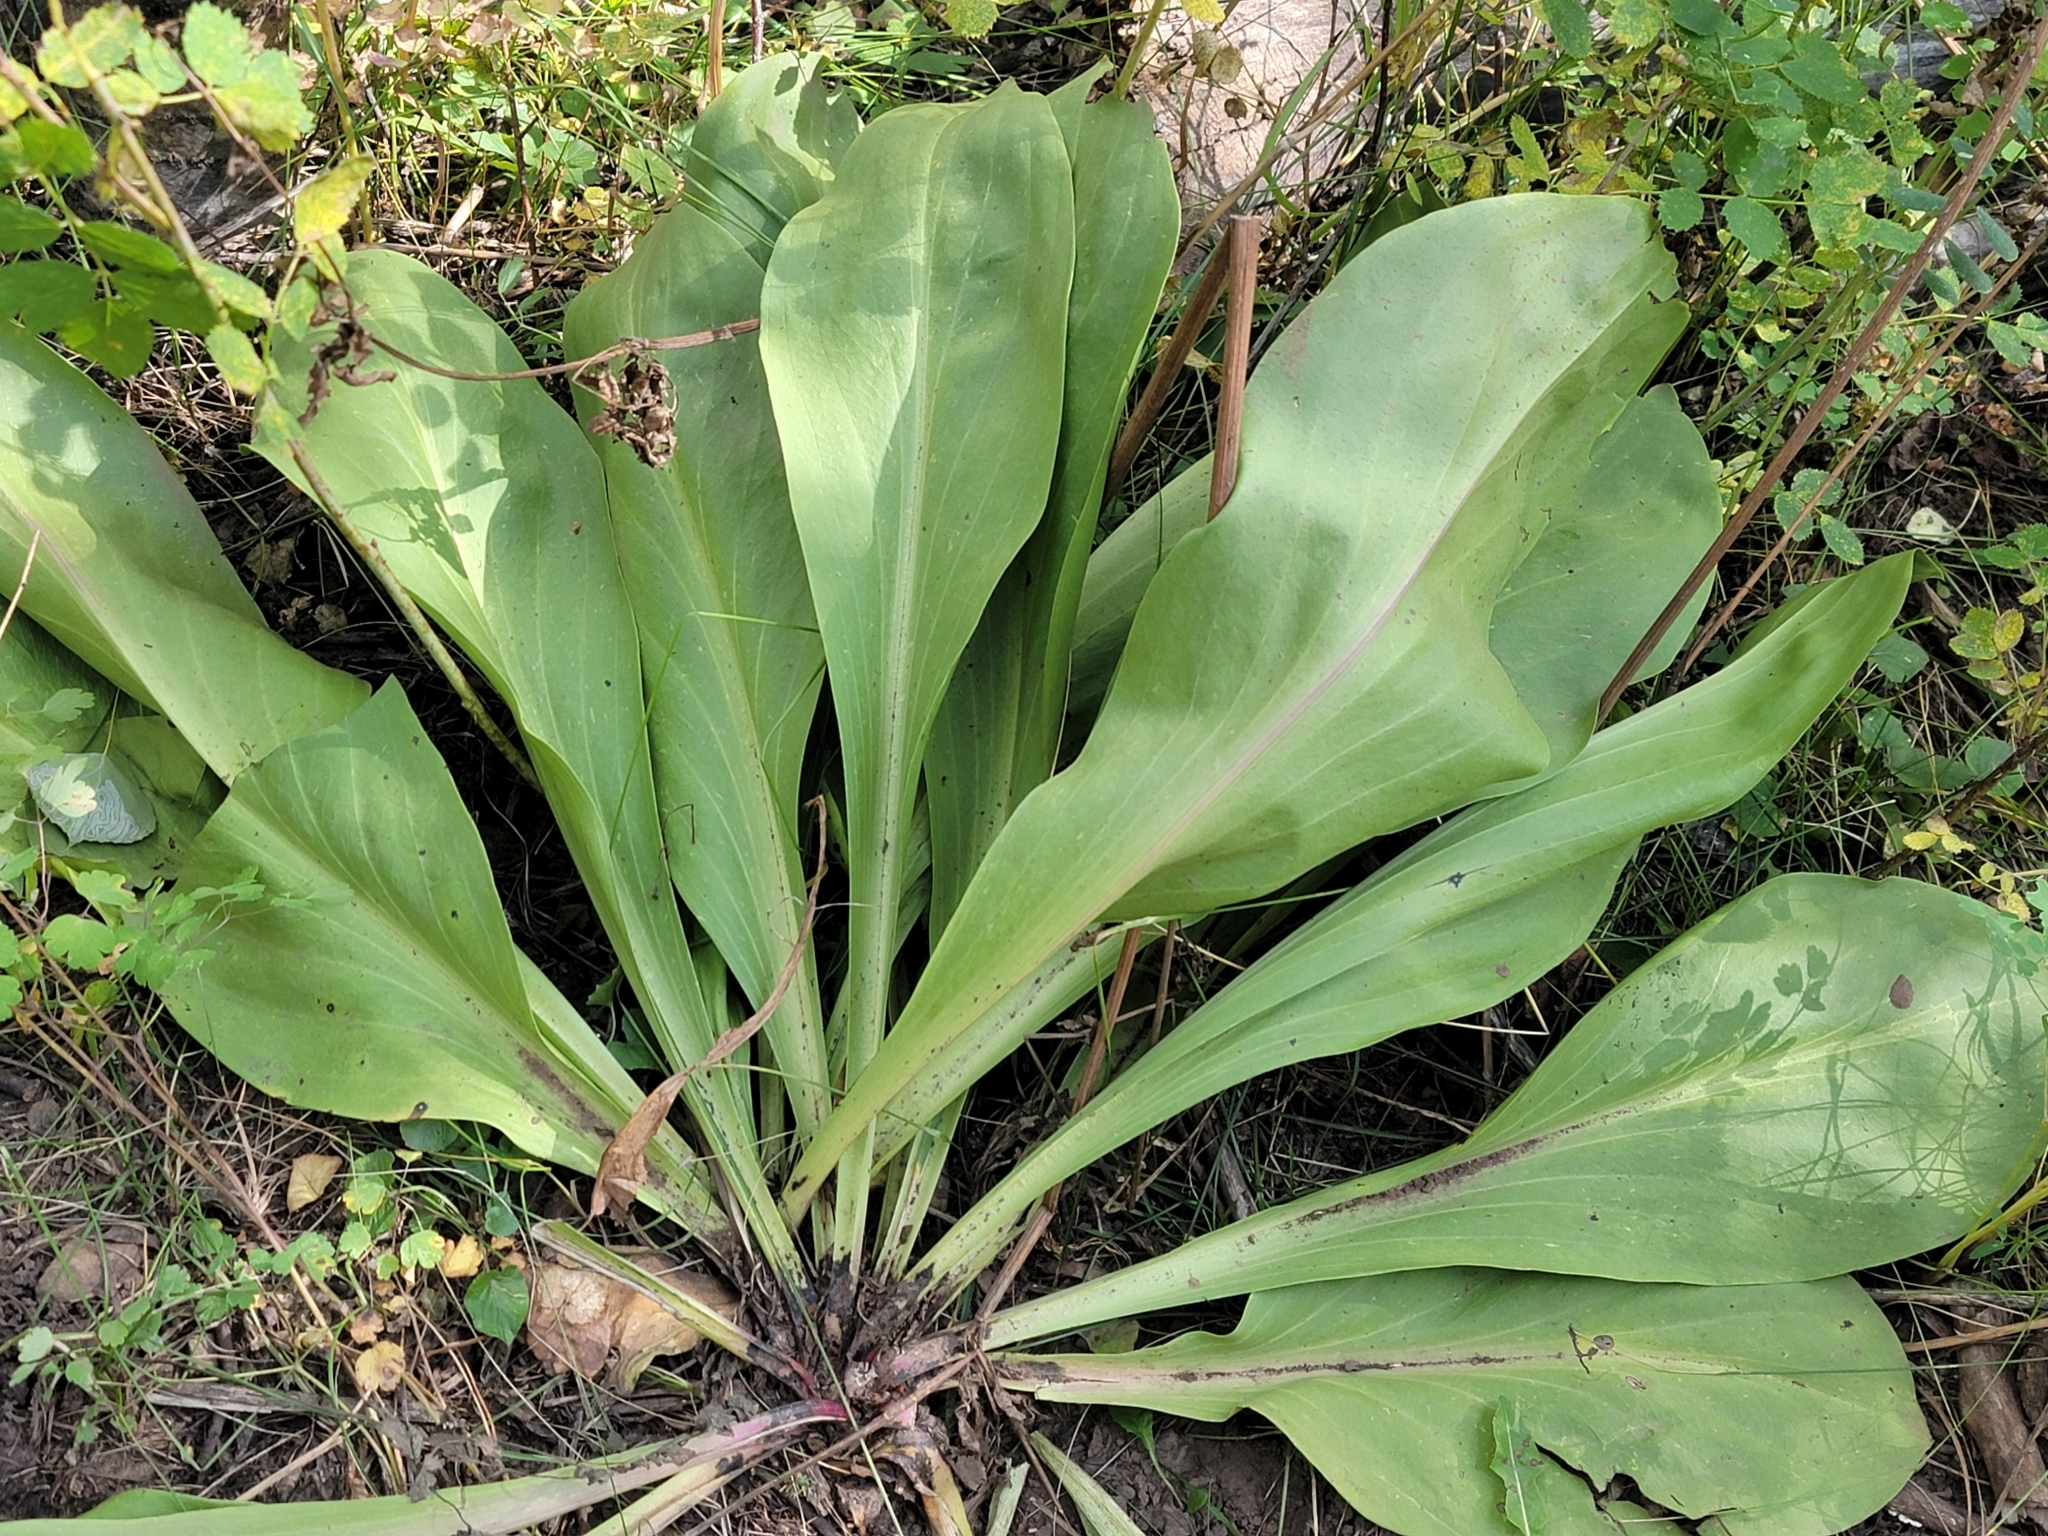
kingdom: Plantae
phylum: Tracheophyta
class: Magnoliopsida
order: Gentianales
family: Gentianaceae
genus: Frasera
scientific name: Frasera speciosa
